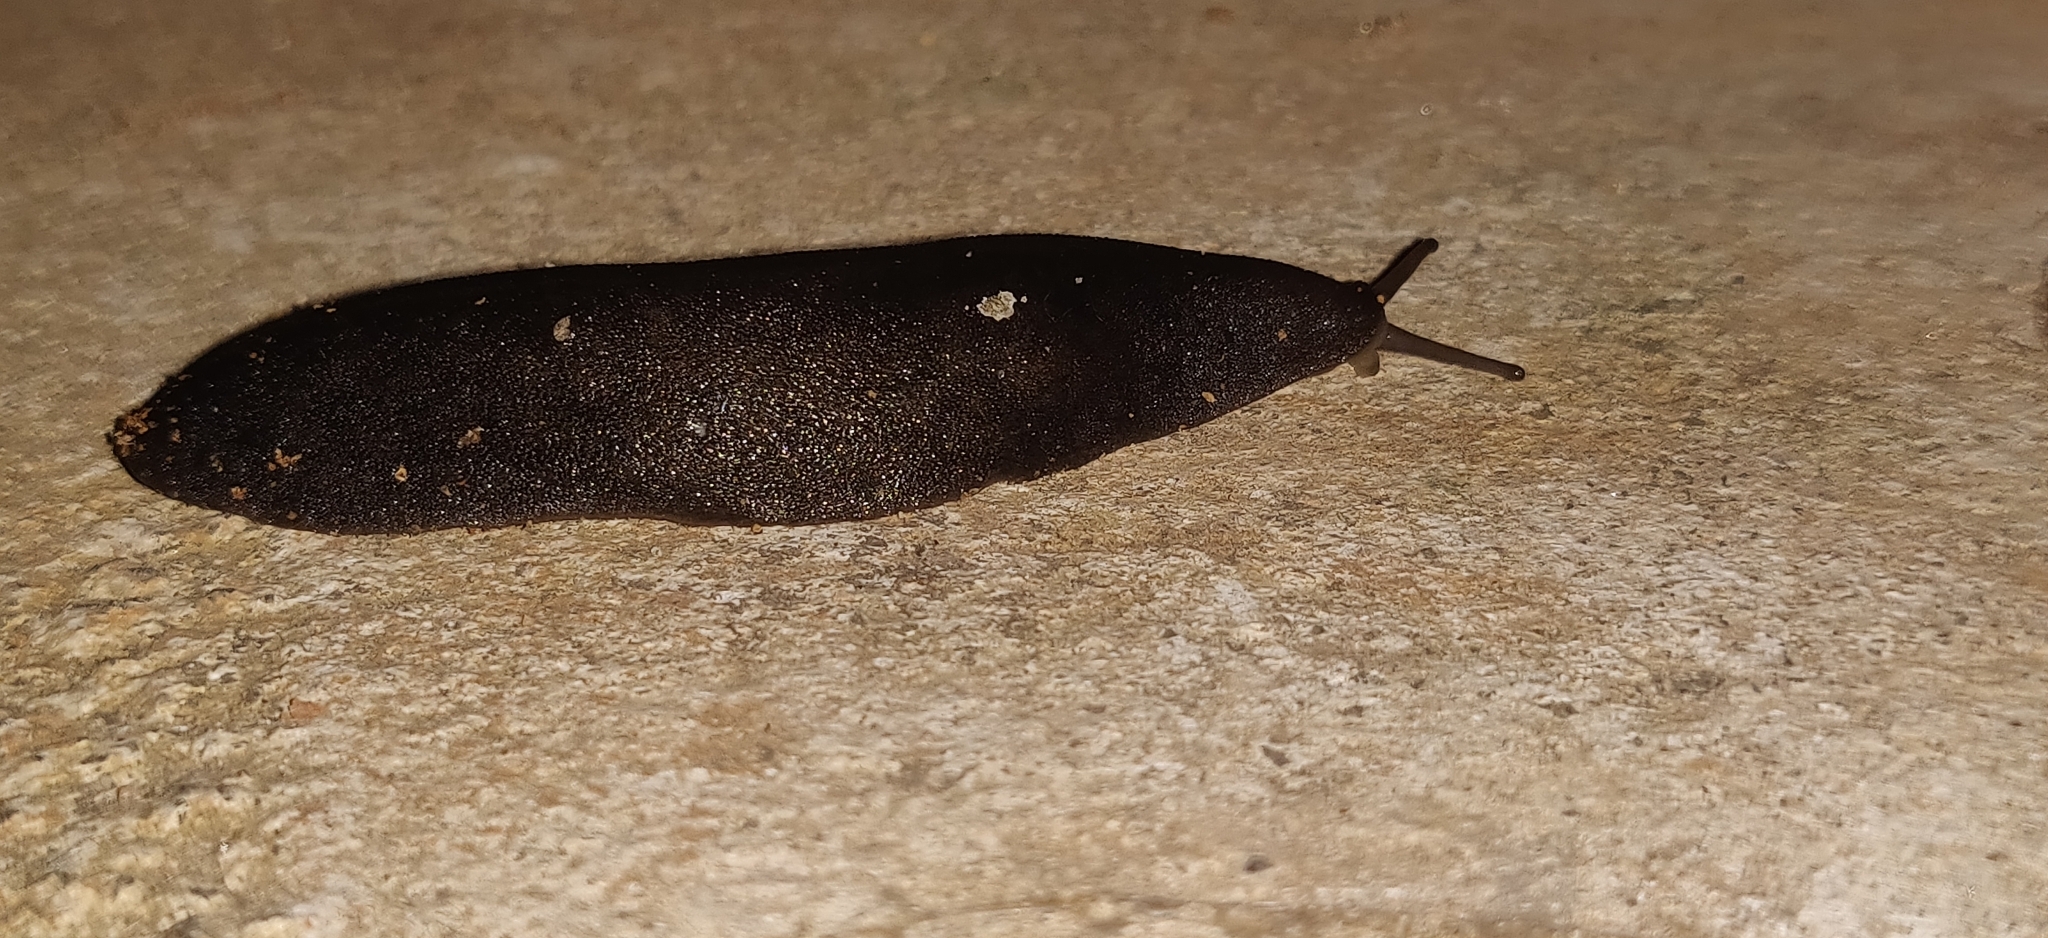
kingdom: Animalia
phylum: Mollusca
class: Gastropoda
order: Systellommatophora
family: Veronicellidae
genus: Laevicaulis
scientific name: Laevicaulis alte
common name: Tropical leatherleaf
